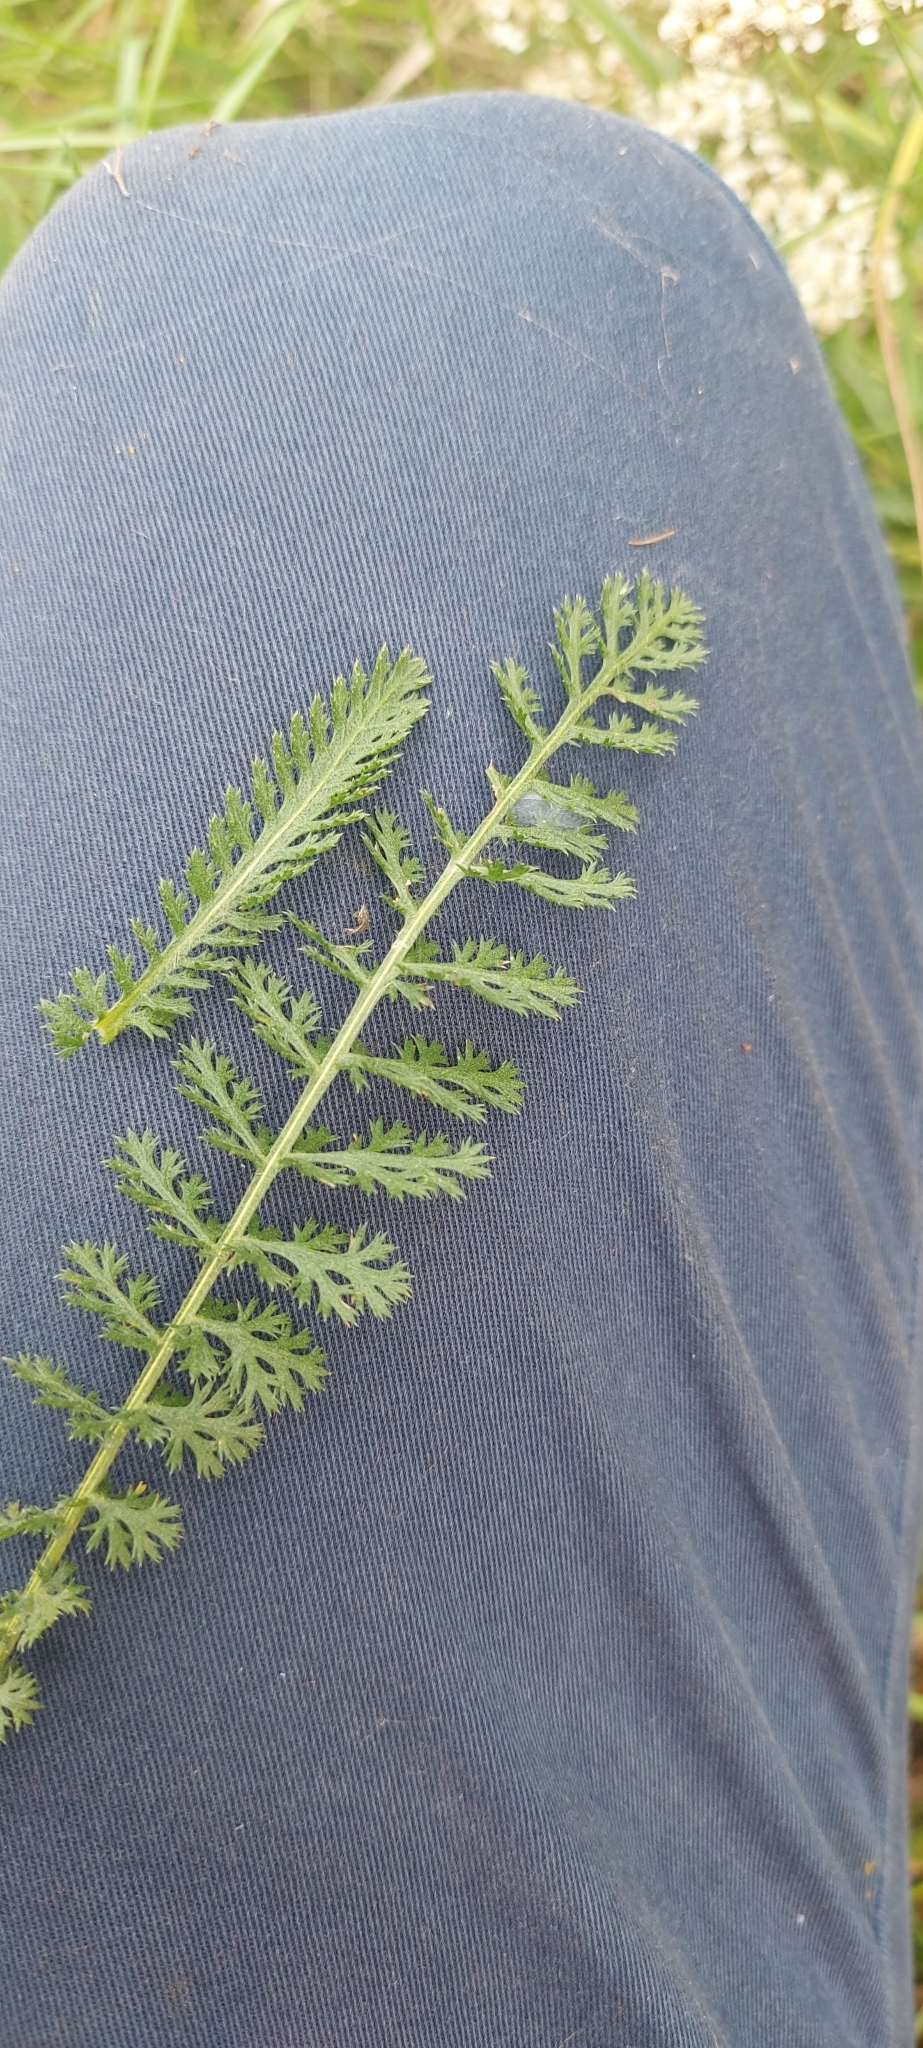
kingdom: Plantae
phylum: Tracheophyta
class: Magnoliopsida
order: Asterales
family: Asteraceae
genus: Achillea
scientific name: Achillea millefolium
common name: Yarrow
